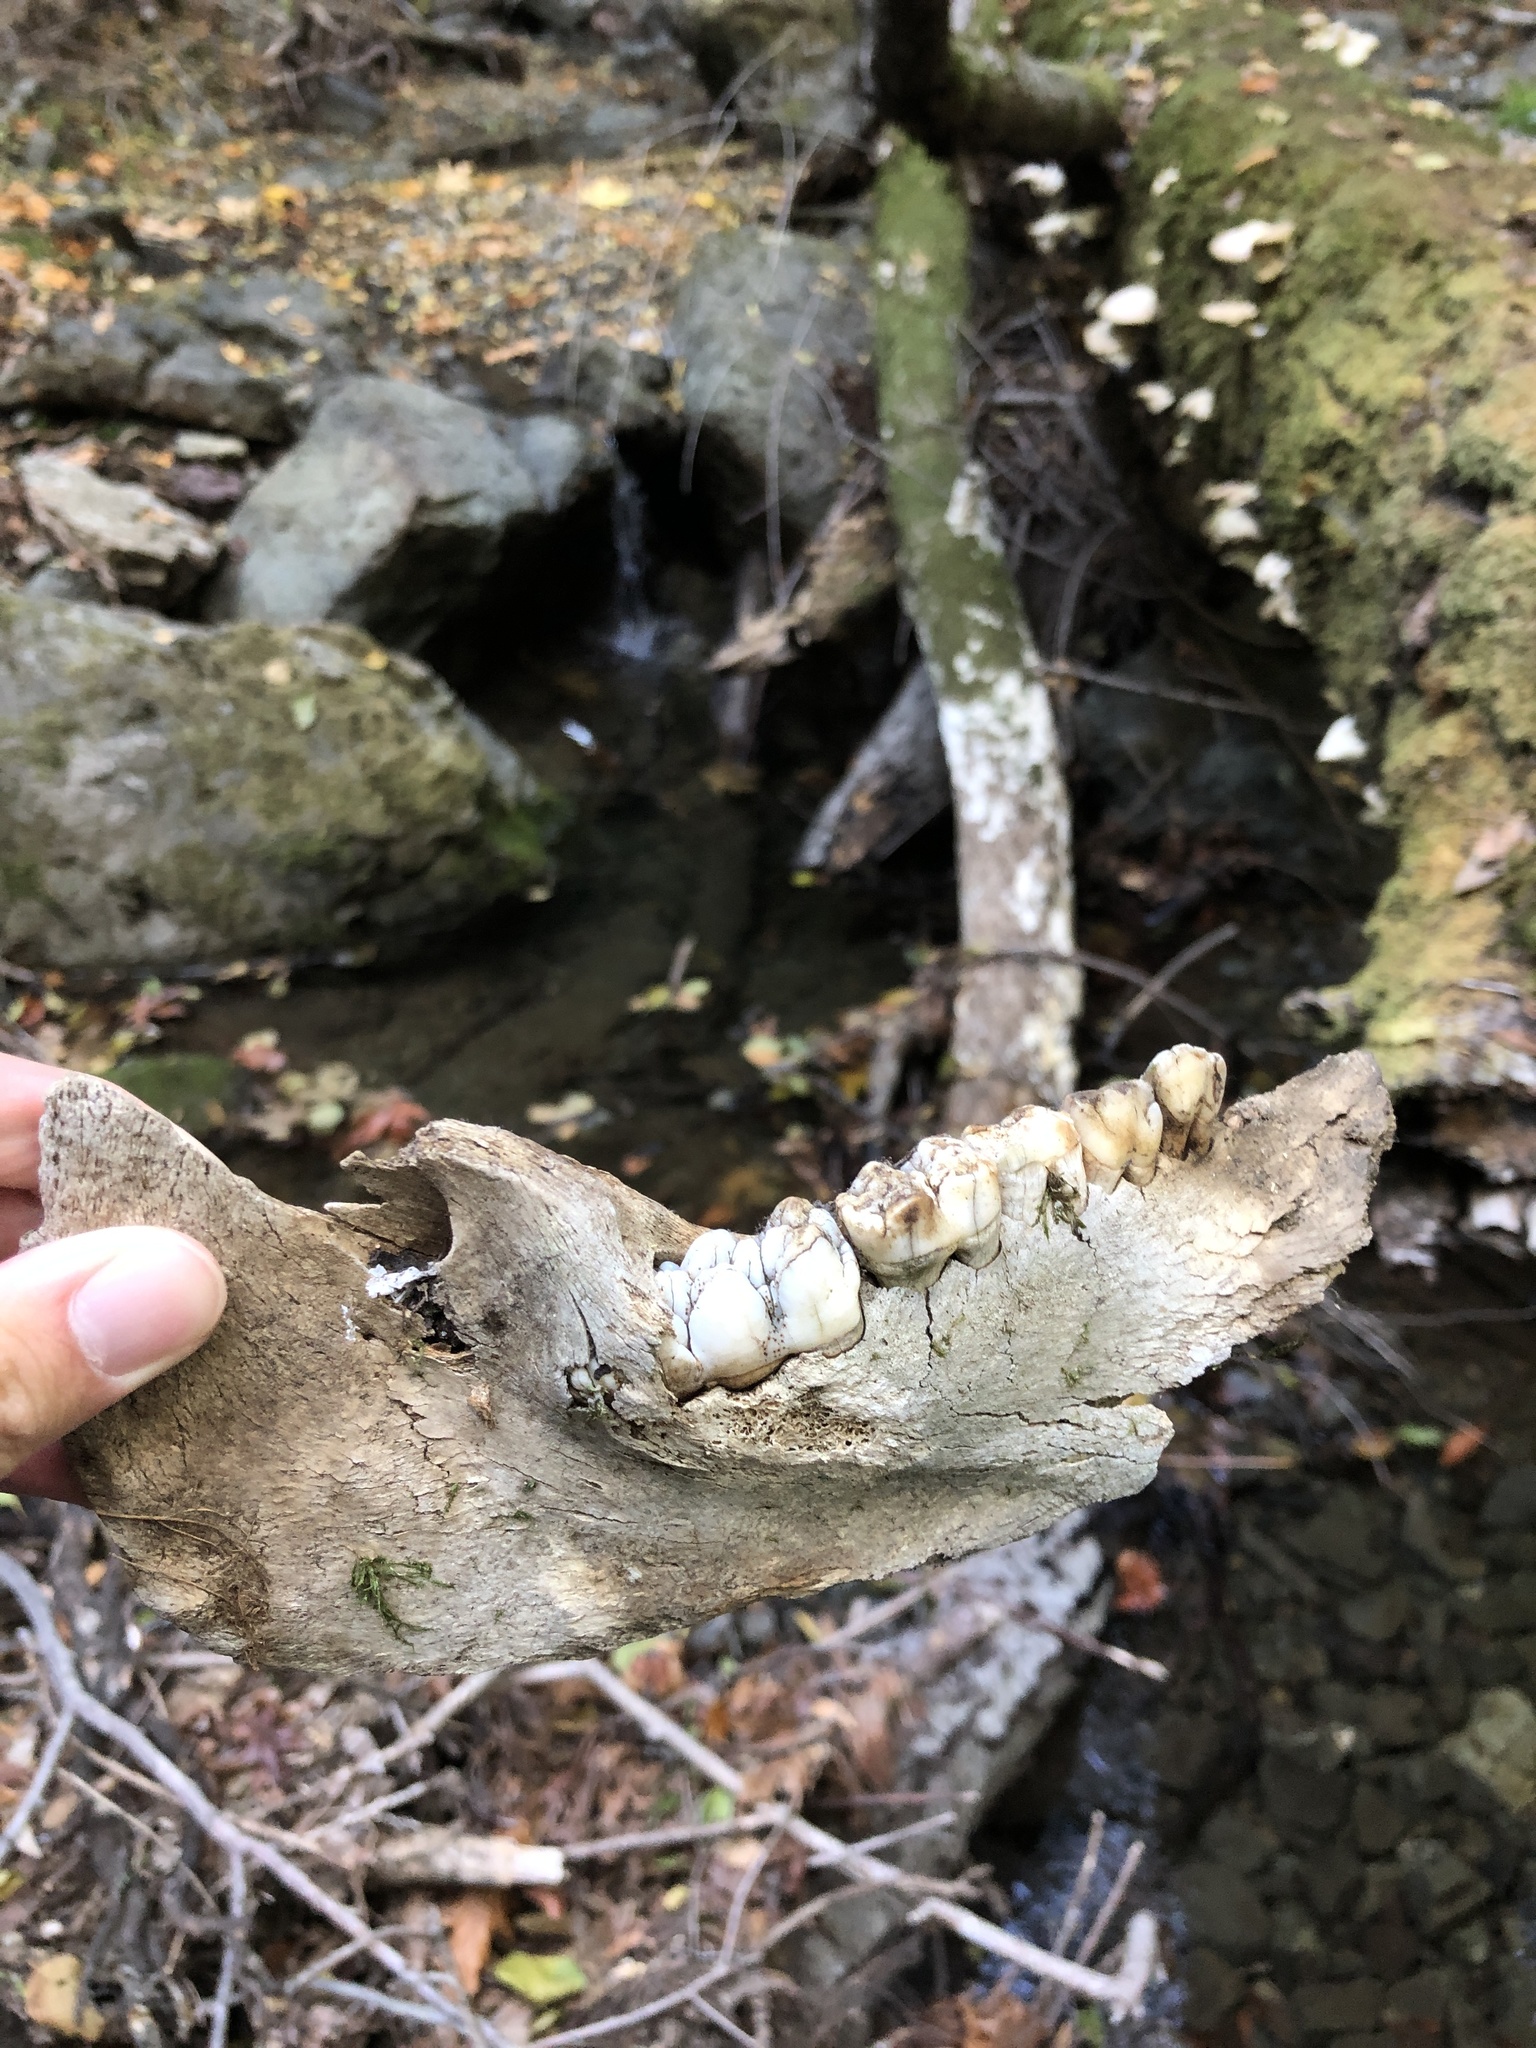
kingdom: Animalia
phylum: Chordata
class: Mammalia
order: Artiodactyla
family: Suidae
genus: Sus
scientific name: Sus scrofa
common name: Wild boar
